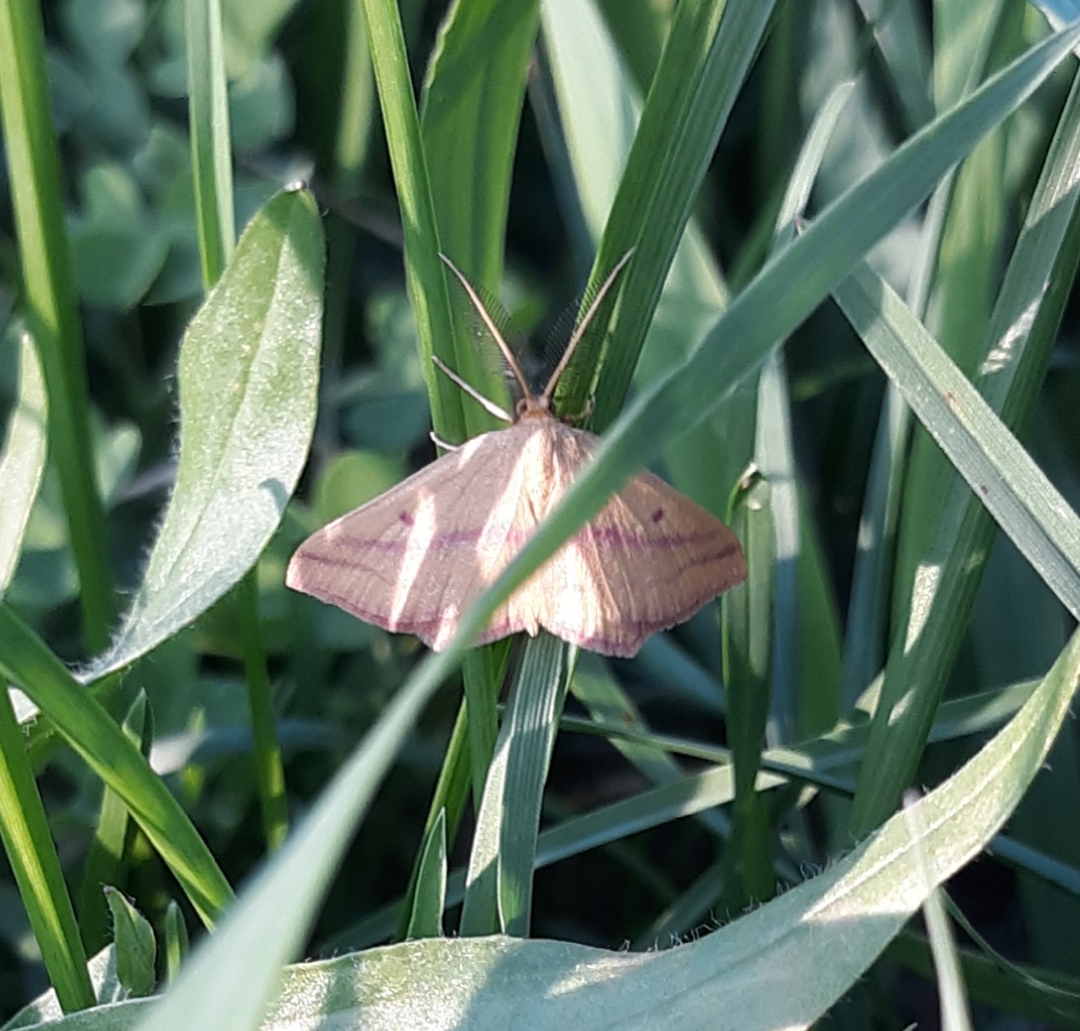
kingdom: Animalia
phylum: Arthropoda
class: Insecta
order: Lepidoptera
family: Geometridae
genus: Haematopis
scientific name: Haematopis grataria
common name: Chickweed geometer
